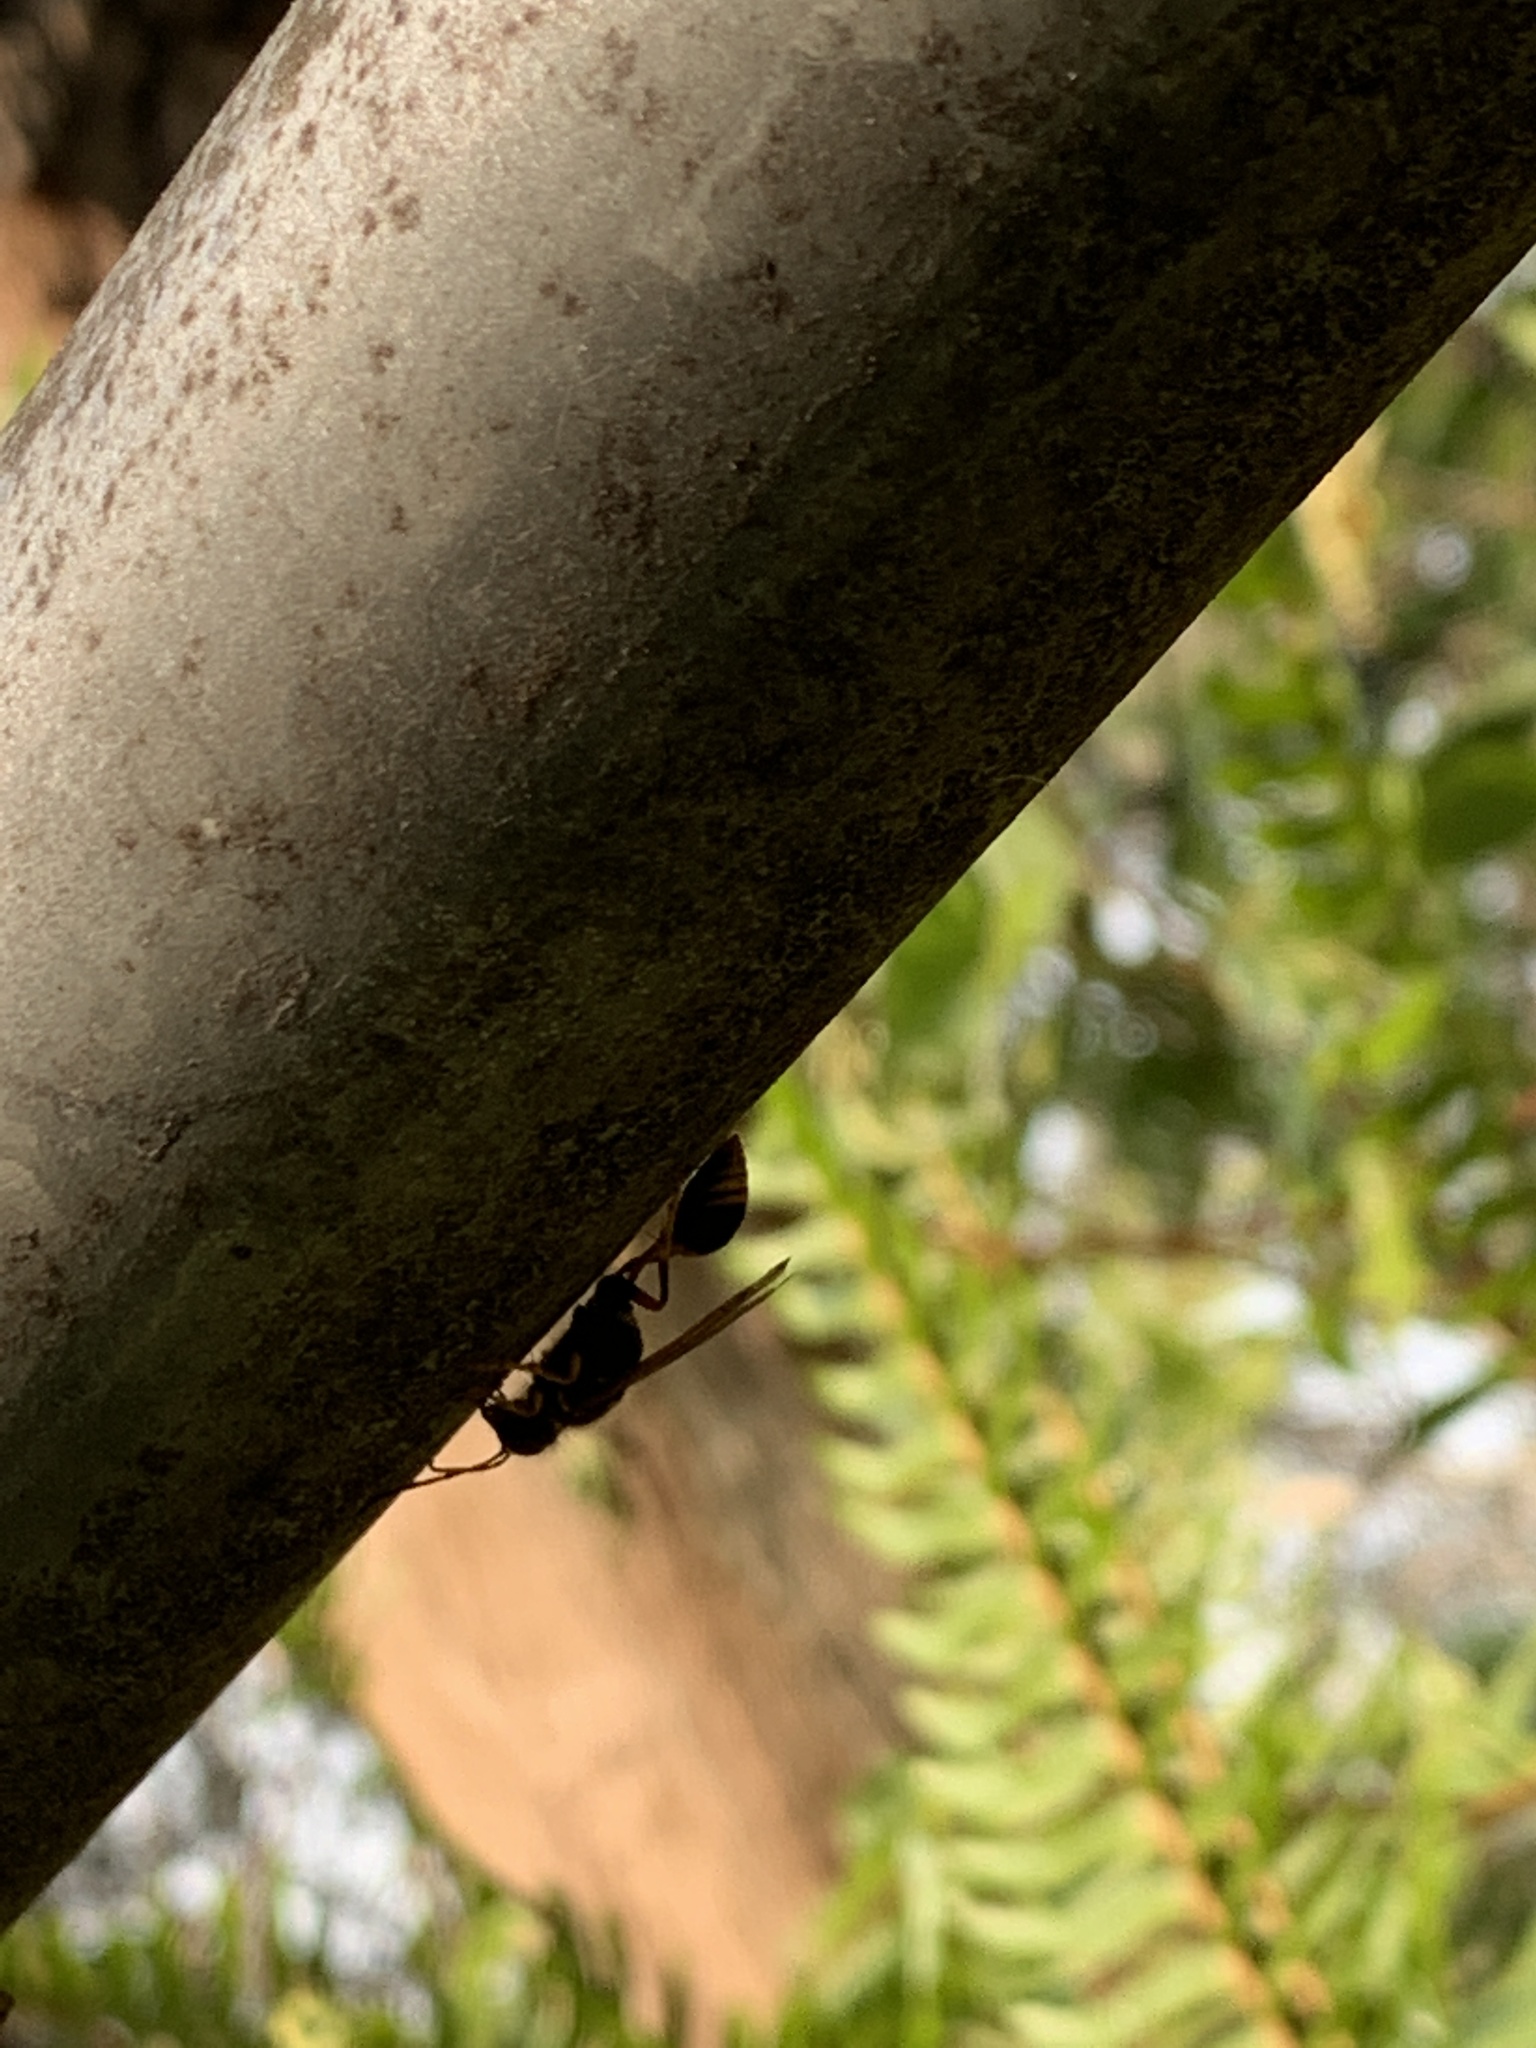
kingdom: Animalia
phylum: Arthropoda
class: Insecta
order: Hymenoptera
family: Sphecidae
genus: Sceliphron
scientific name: Sceliphron formosum
